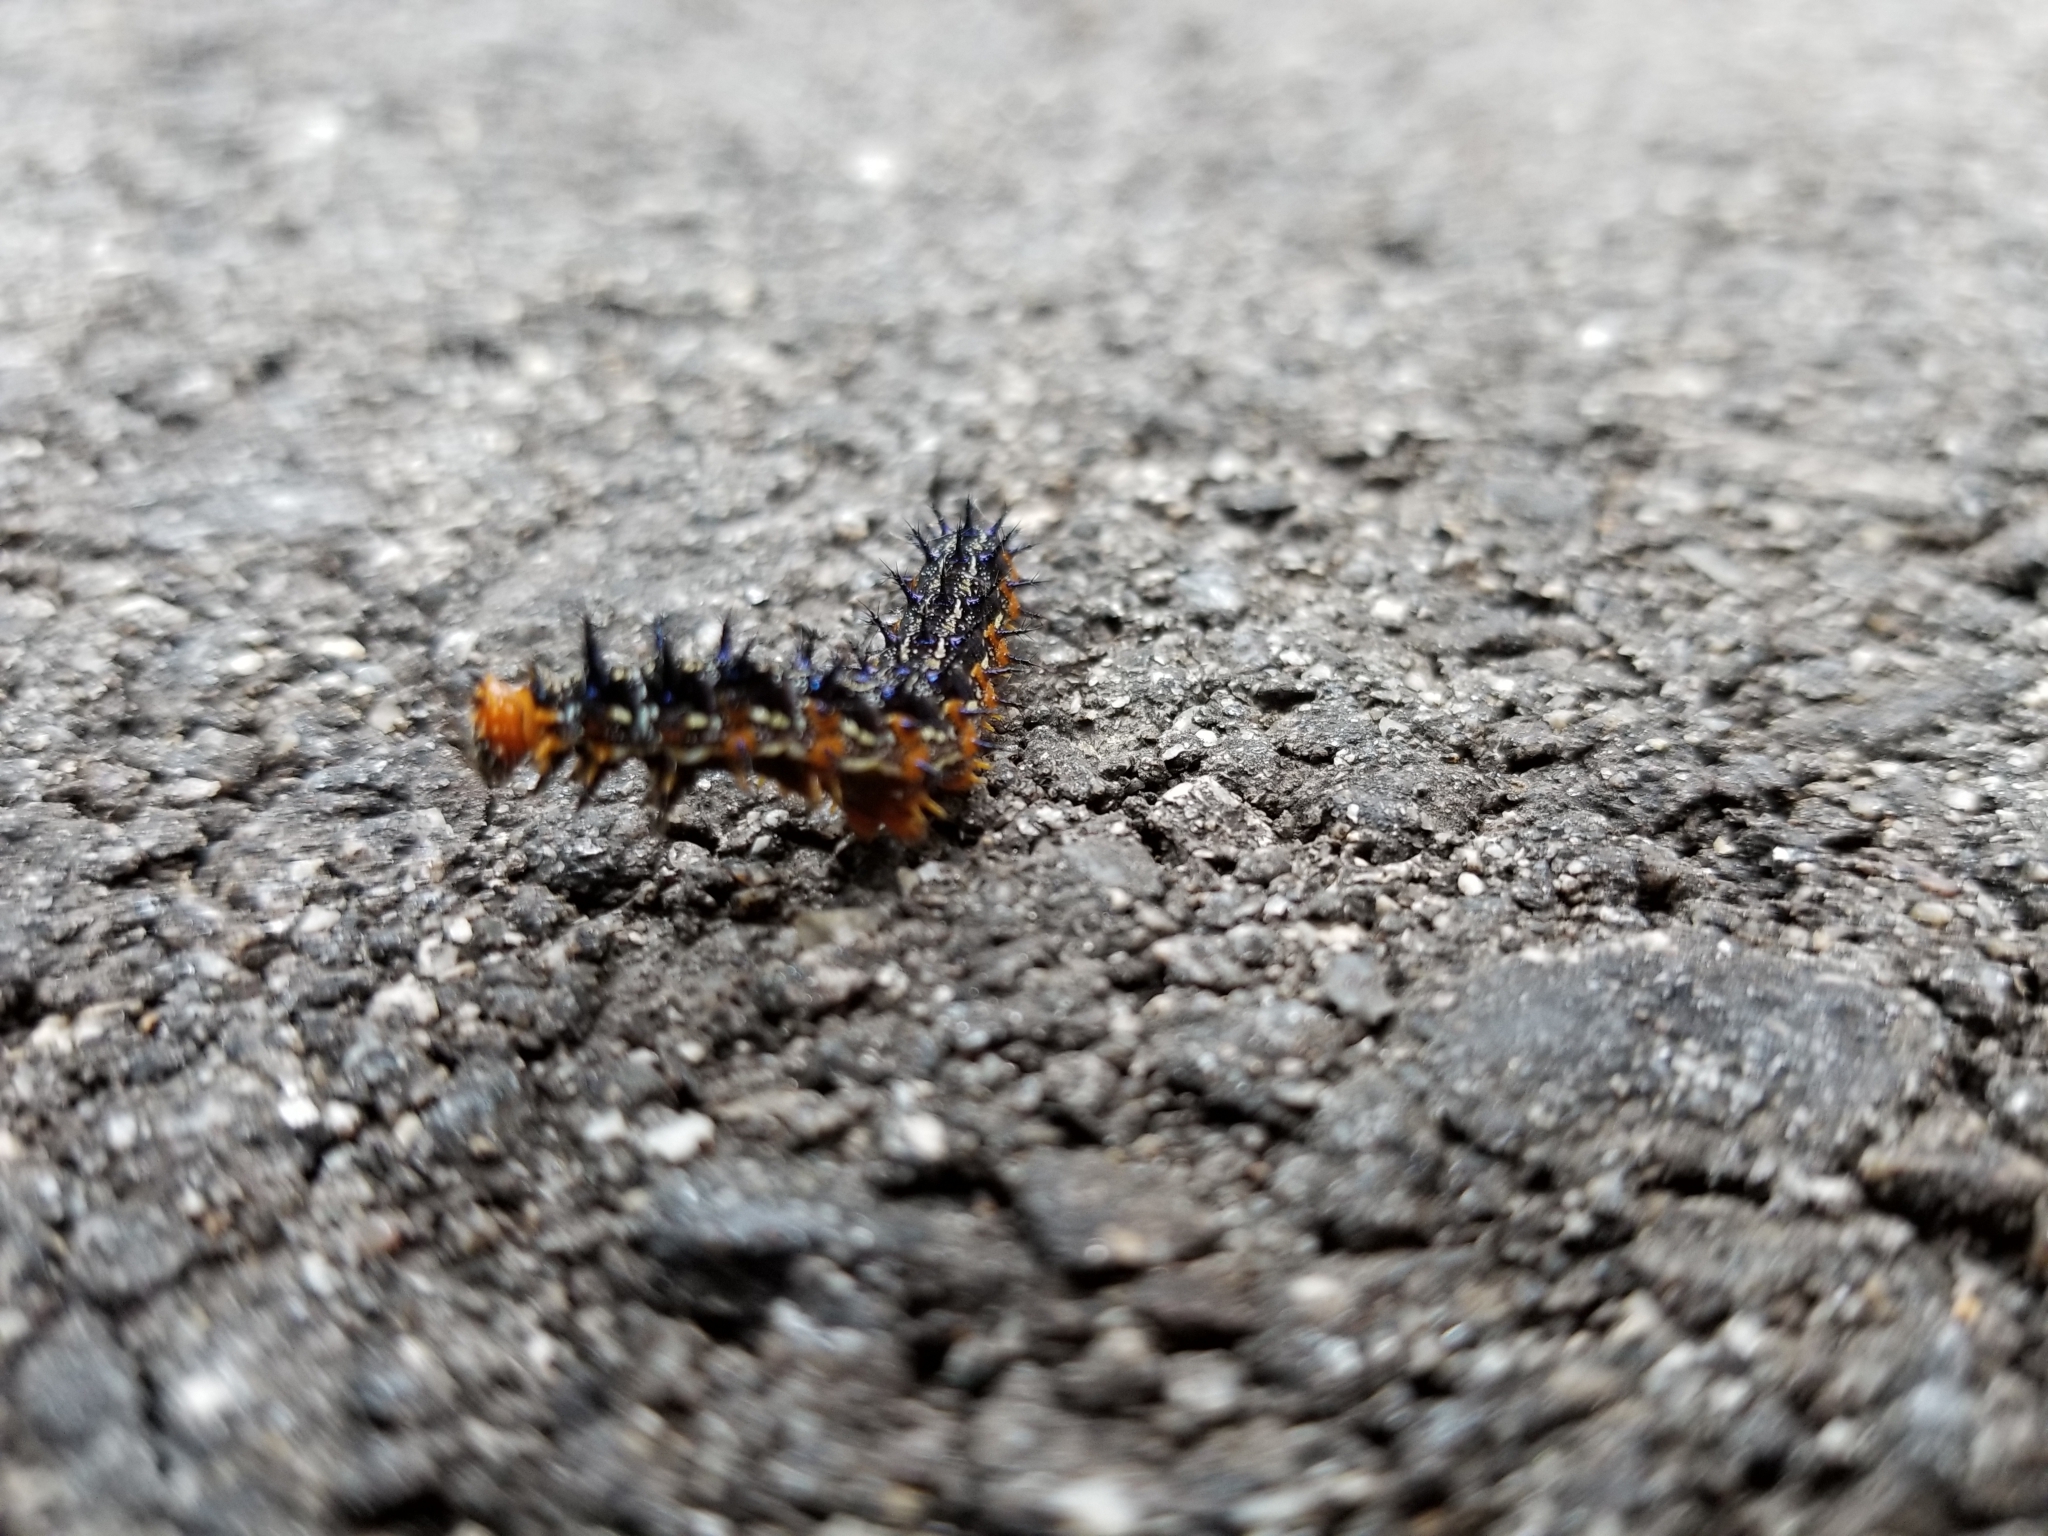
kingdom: Animalia
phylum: Arthropoda
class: Insecta
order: Lepidoptera
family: Nymphalidae
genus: Junonia
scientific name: Junonia grisea
